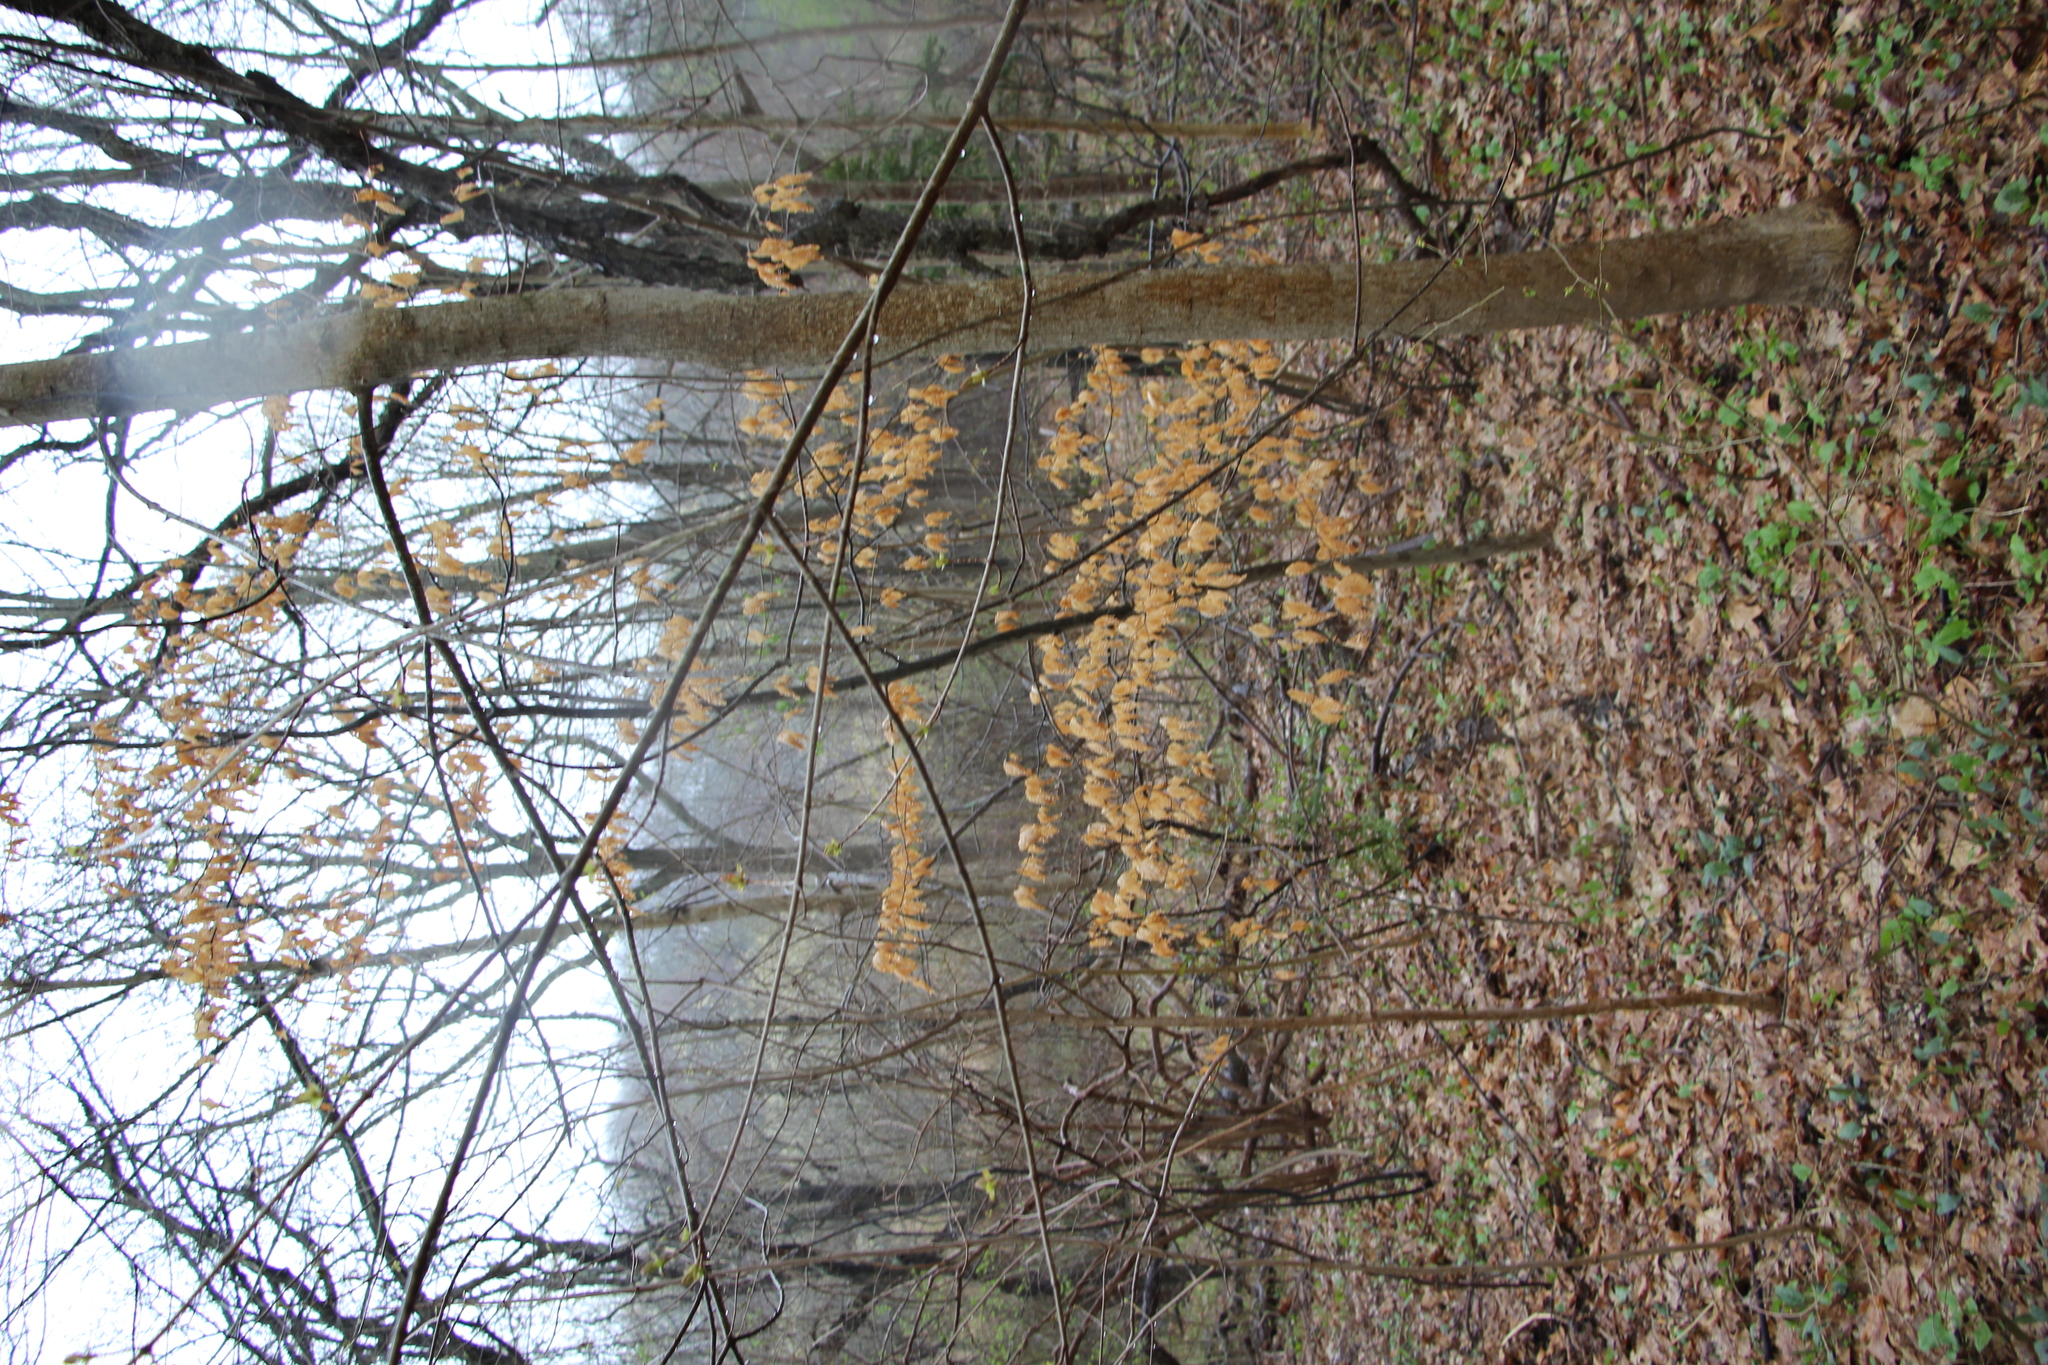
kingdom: Plantae
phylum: Tracheophyta
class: Magnoliopsida
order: Fagales
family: Fagaceae
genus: Fagus
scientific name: Fagus grandifolia
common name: American beech
